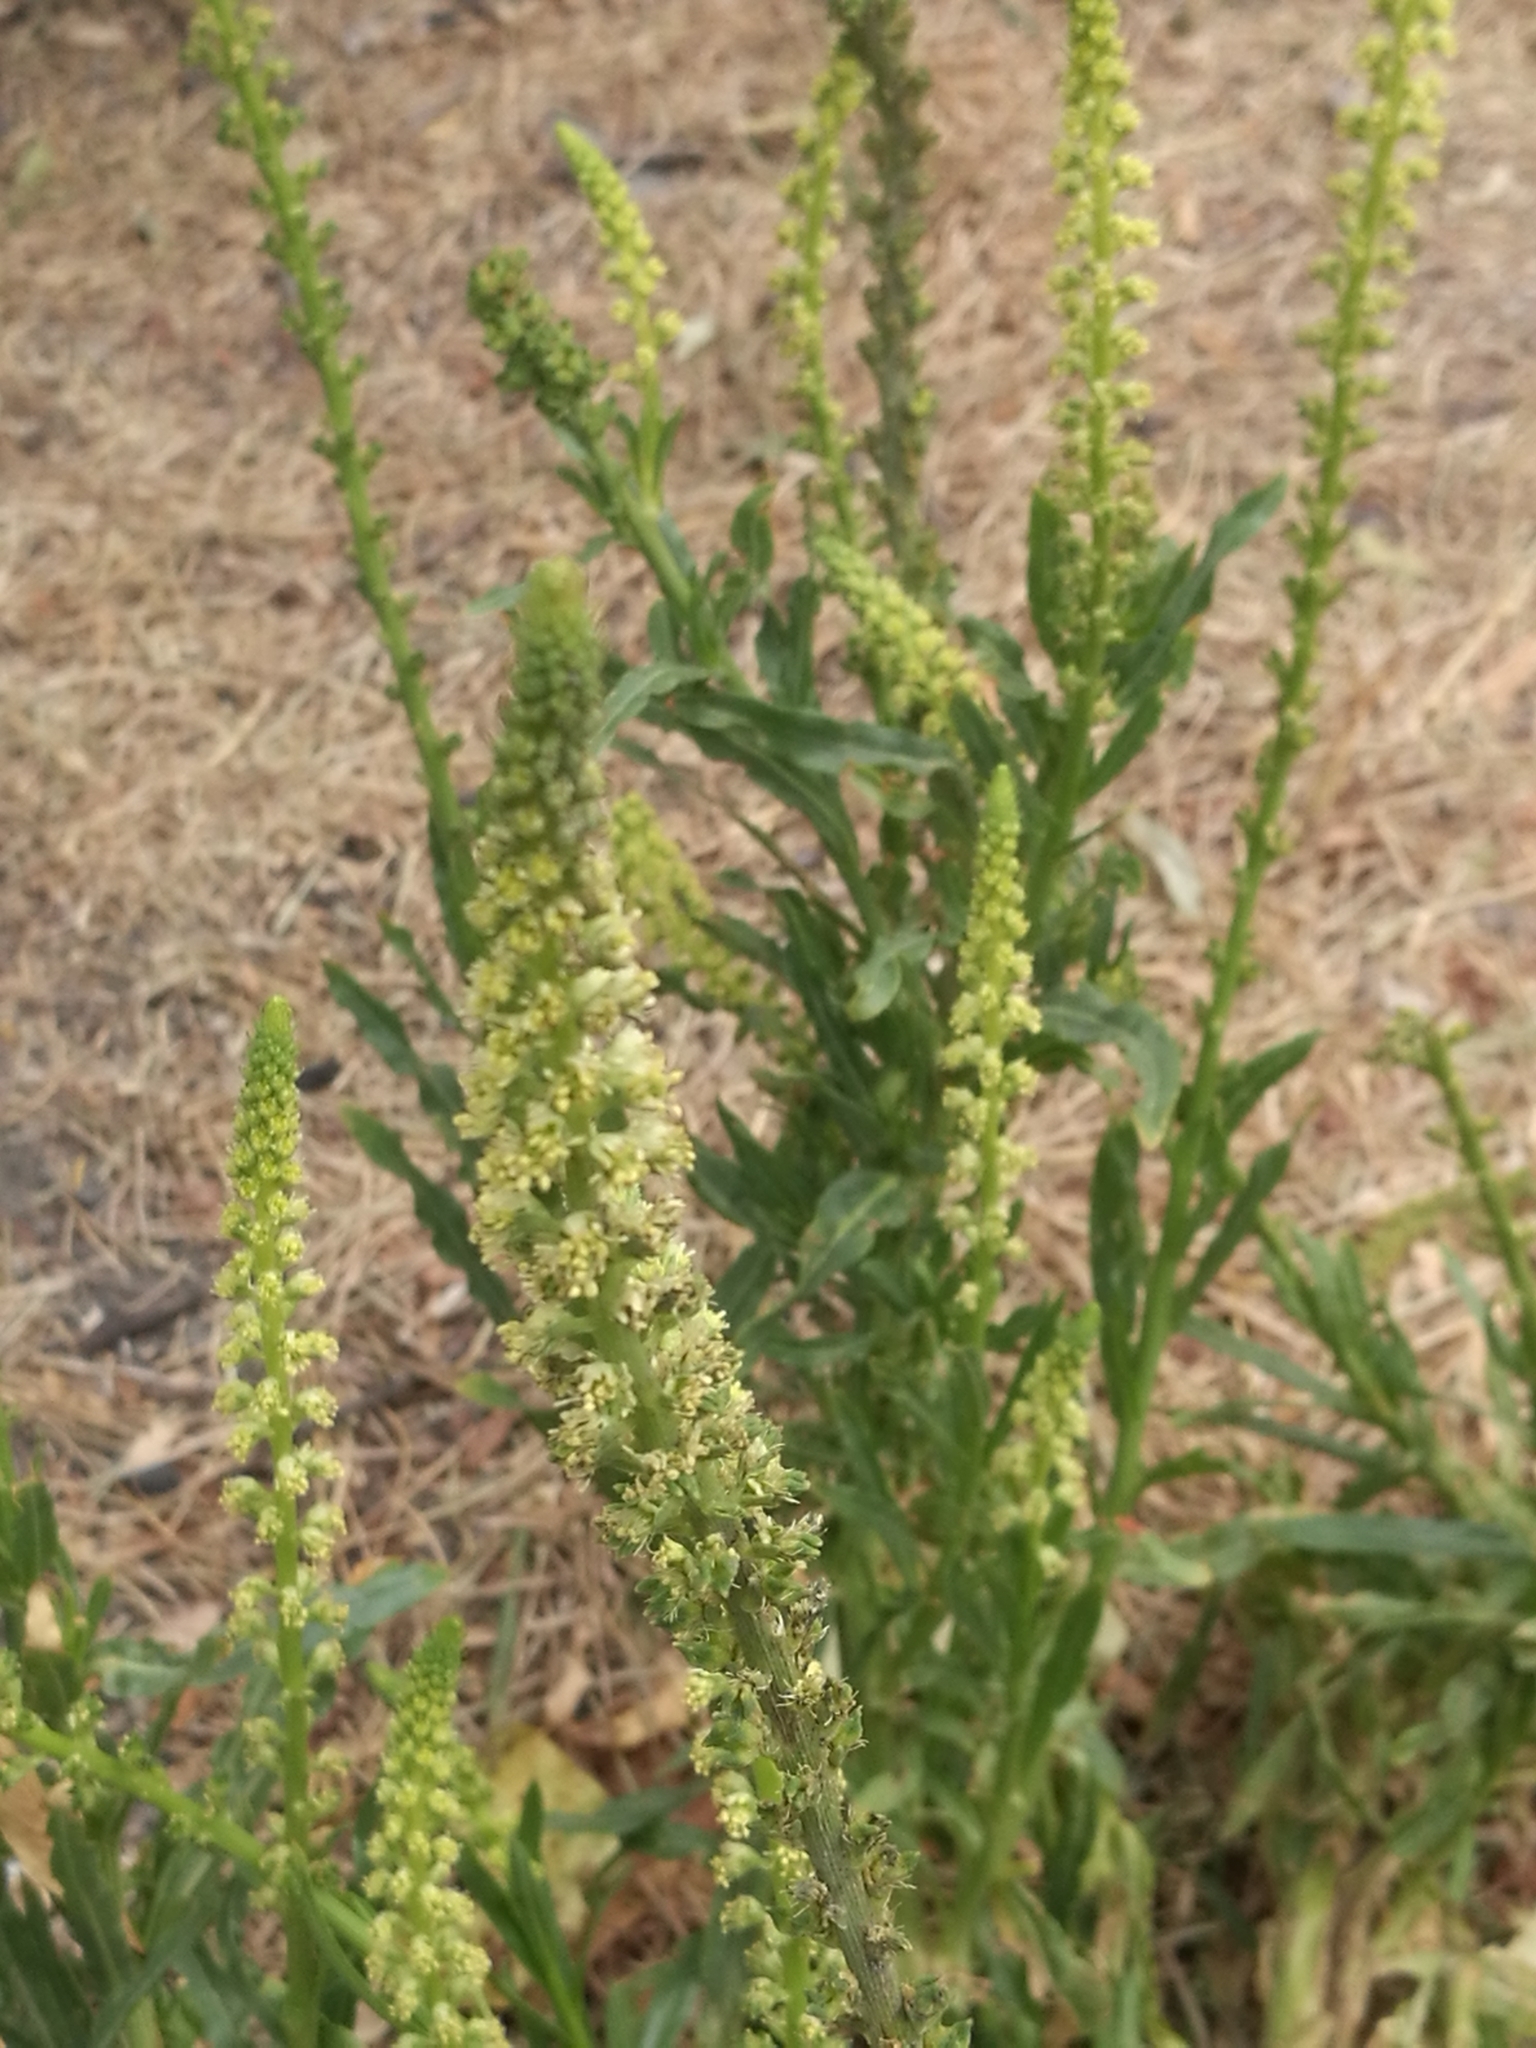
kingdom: Plantae
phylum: Tracheophyta
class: Magnoliopsida
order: Brassicales
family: Resedaceae
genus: Reseda
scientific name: Reseda luteola
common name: Weld
